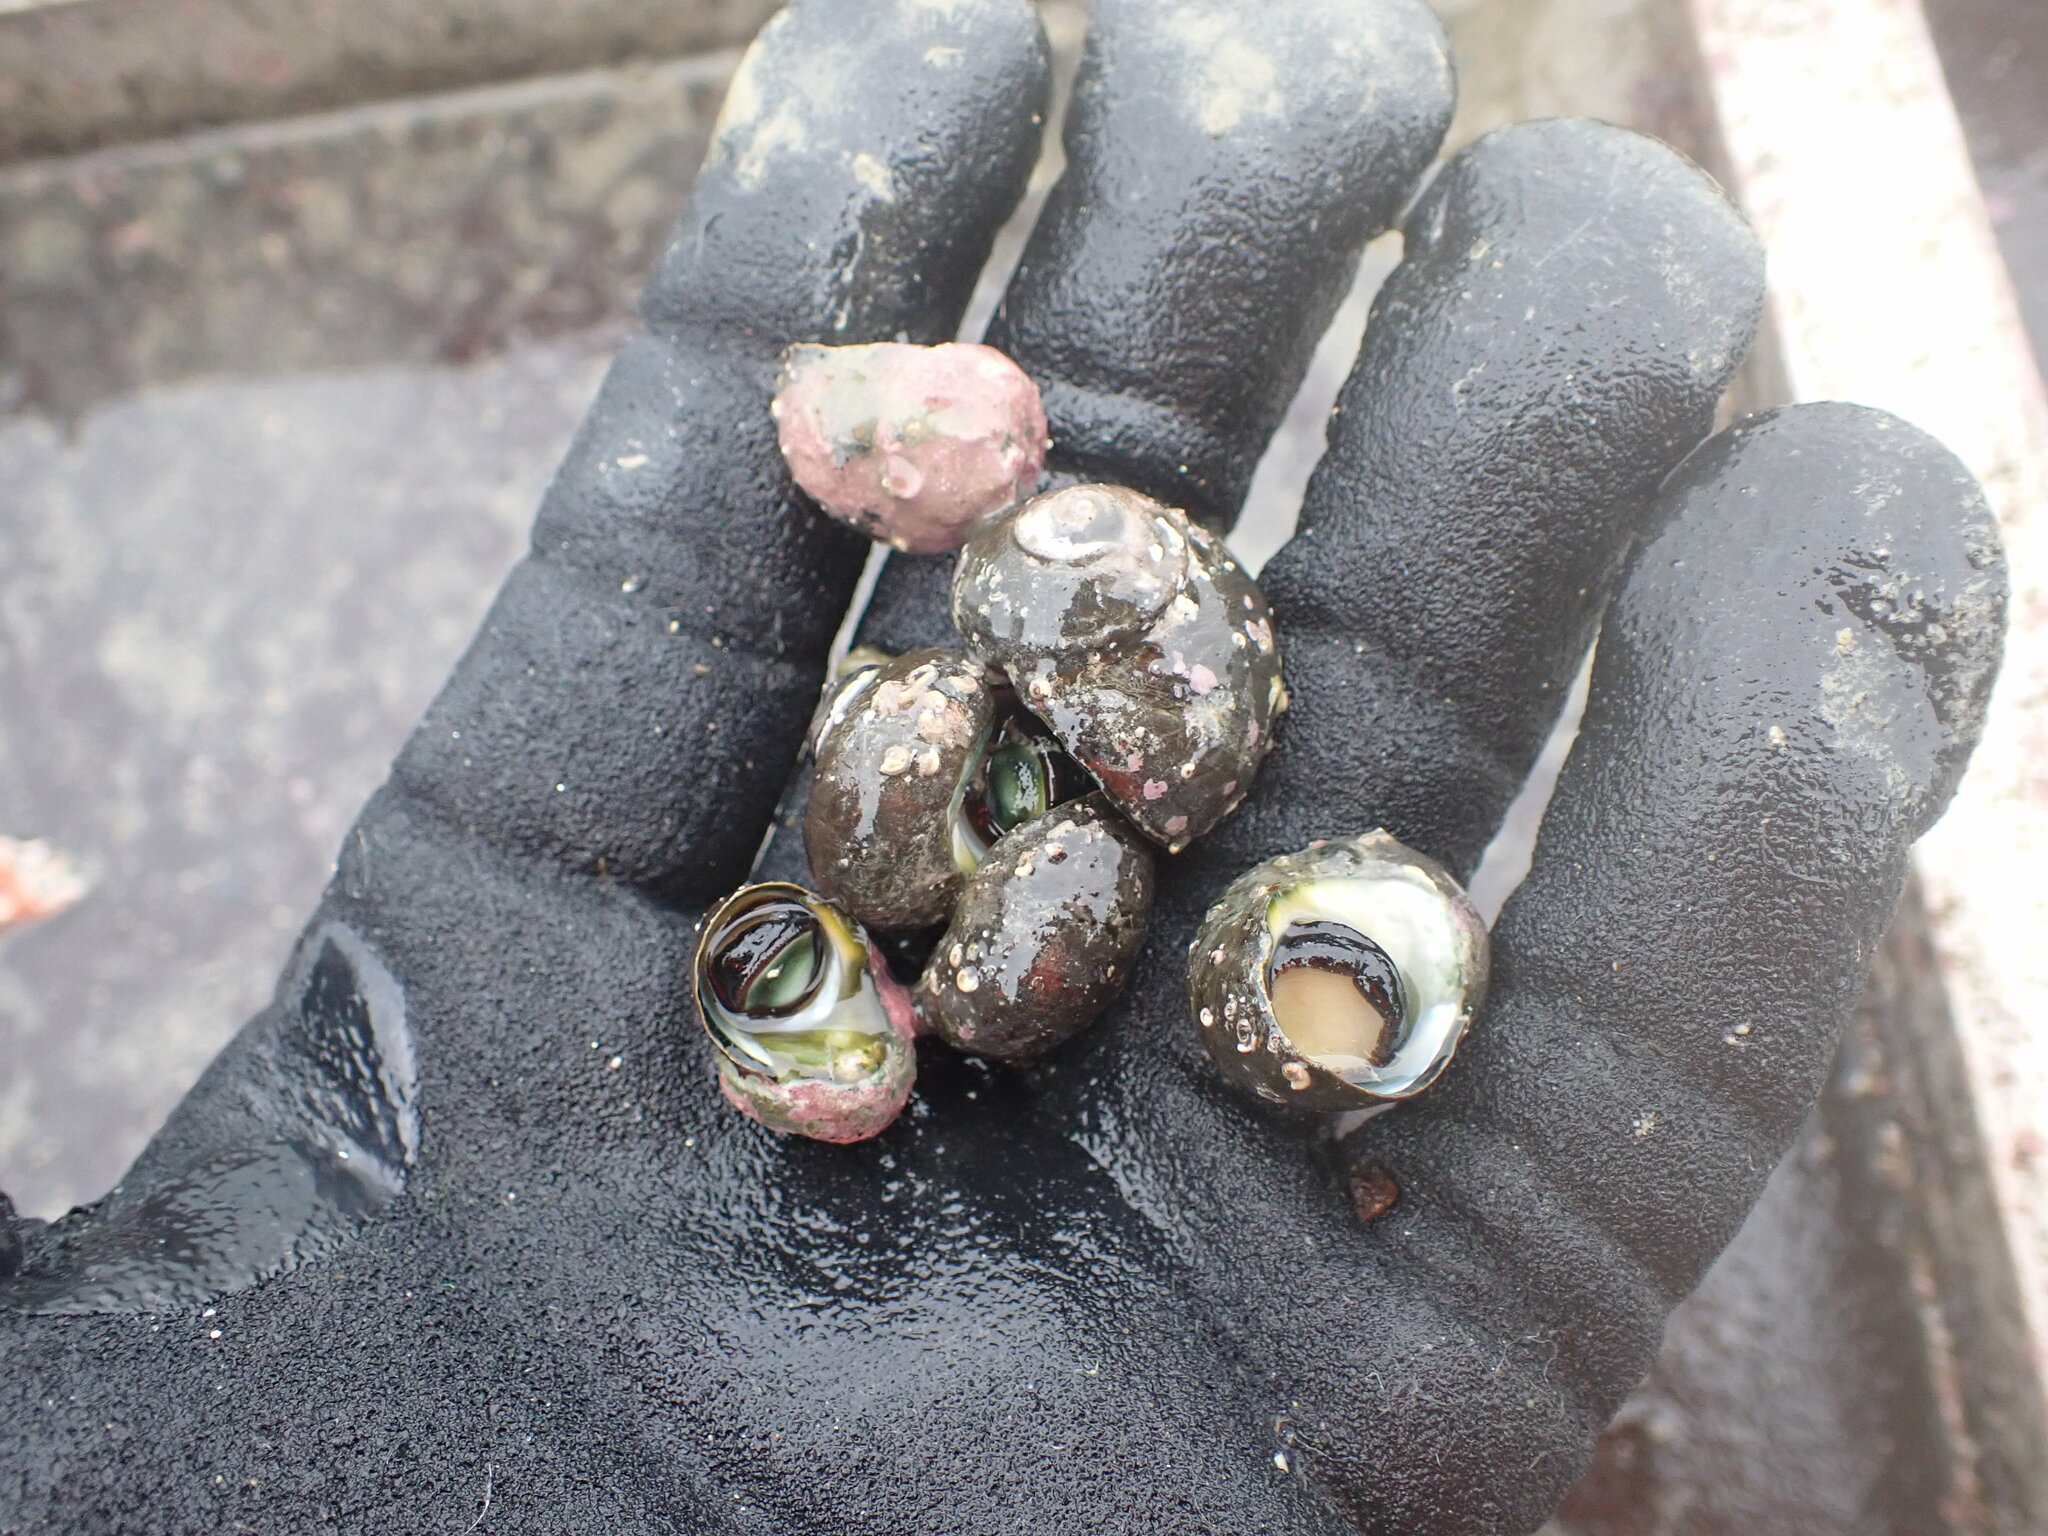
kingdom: Animalia
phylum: Mollusca
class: Gastropoda
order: Trochida
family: Turbinidae
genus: Lunella
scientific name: Lunella smaragda
